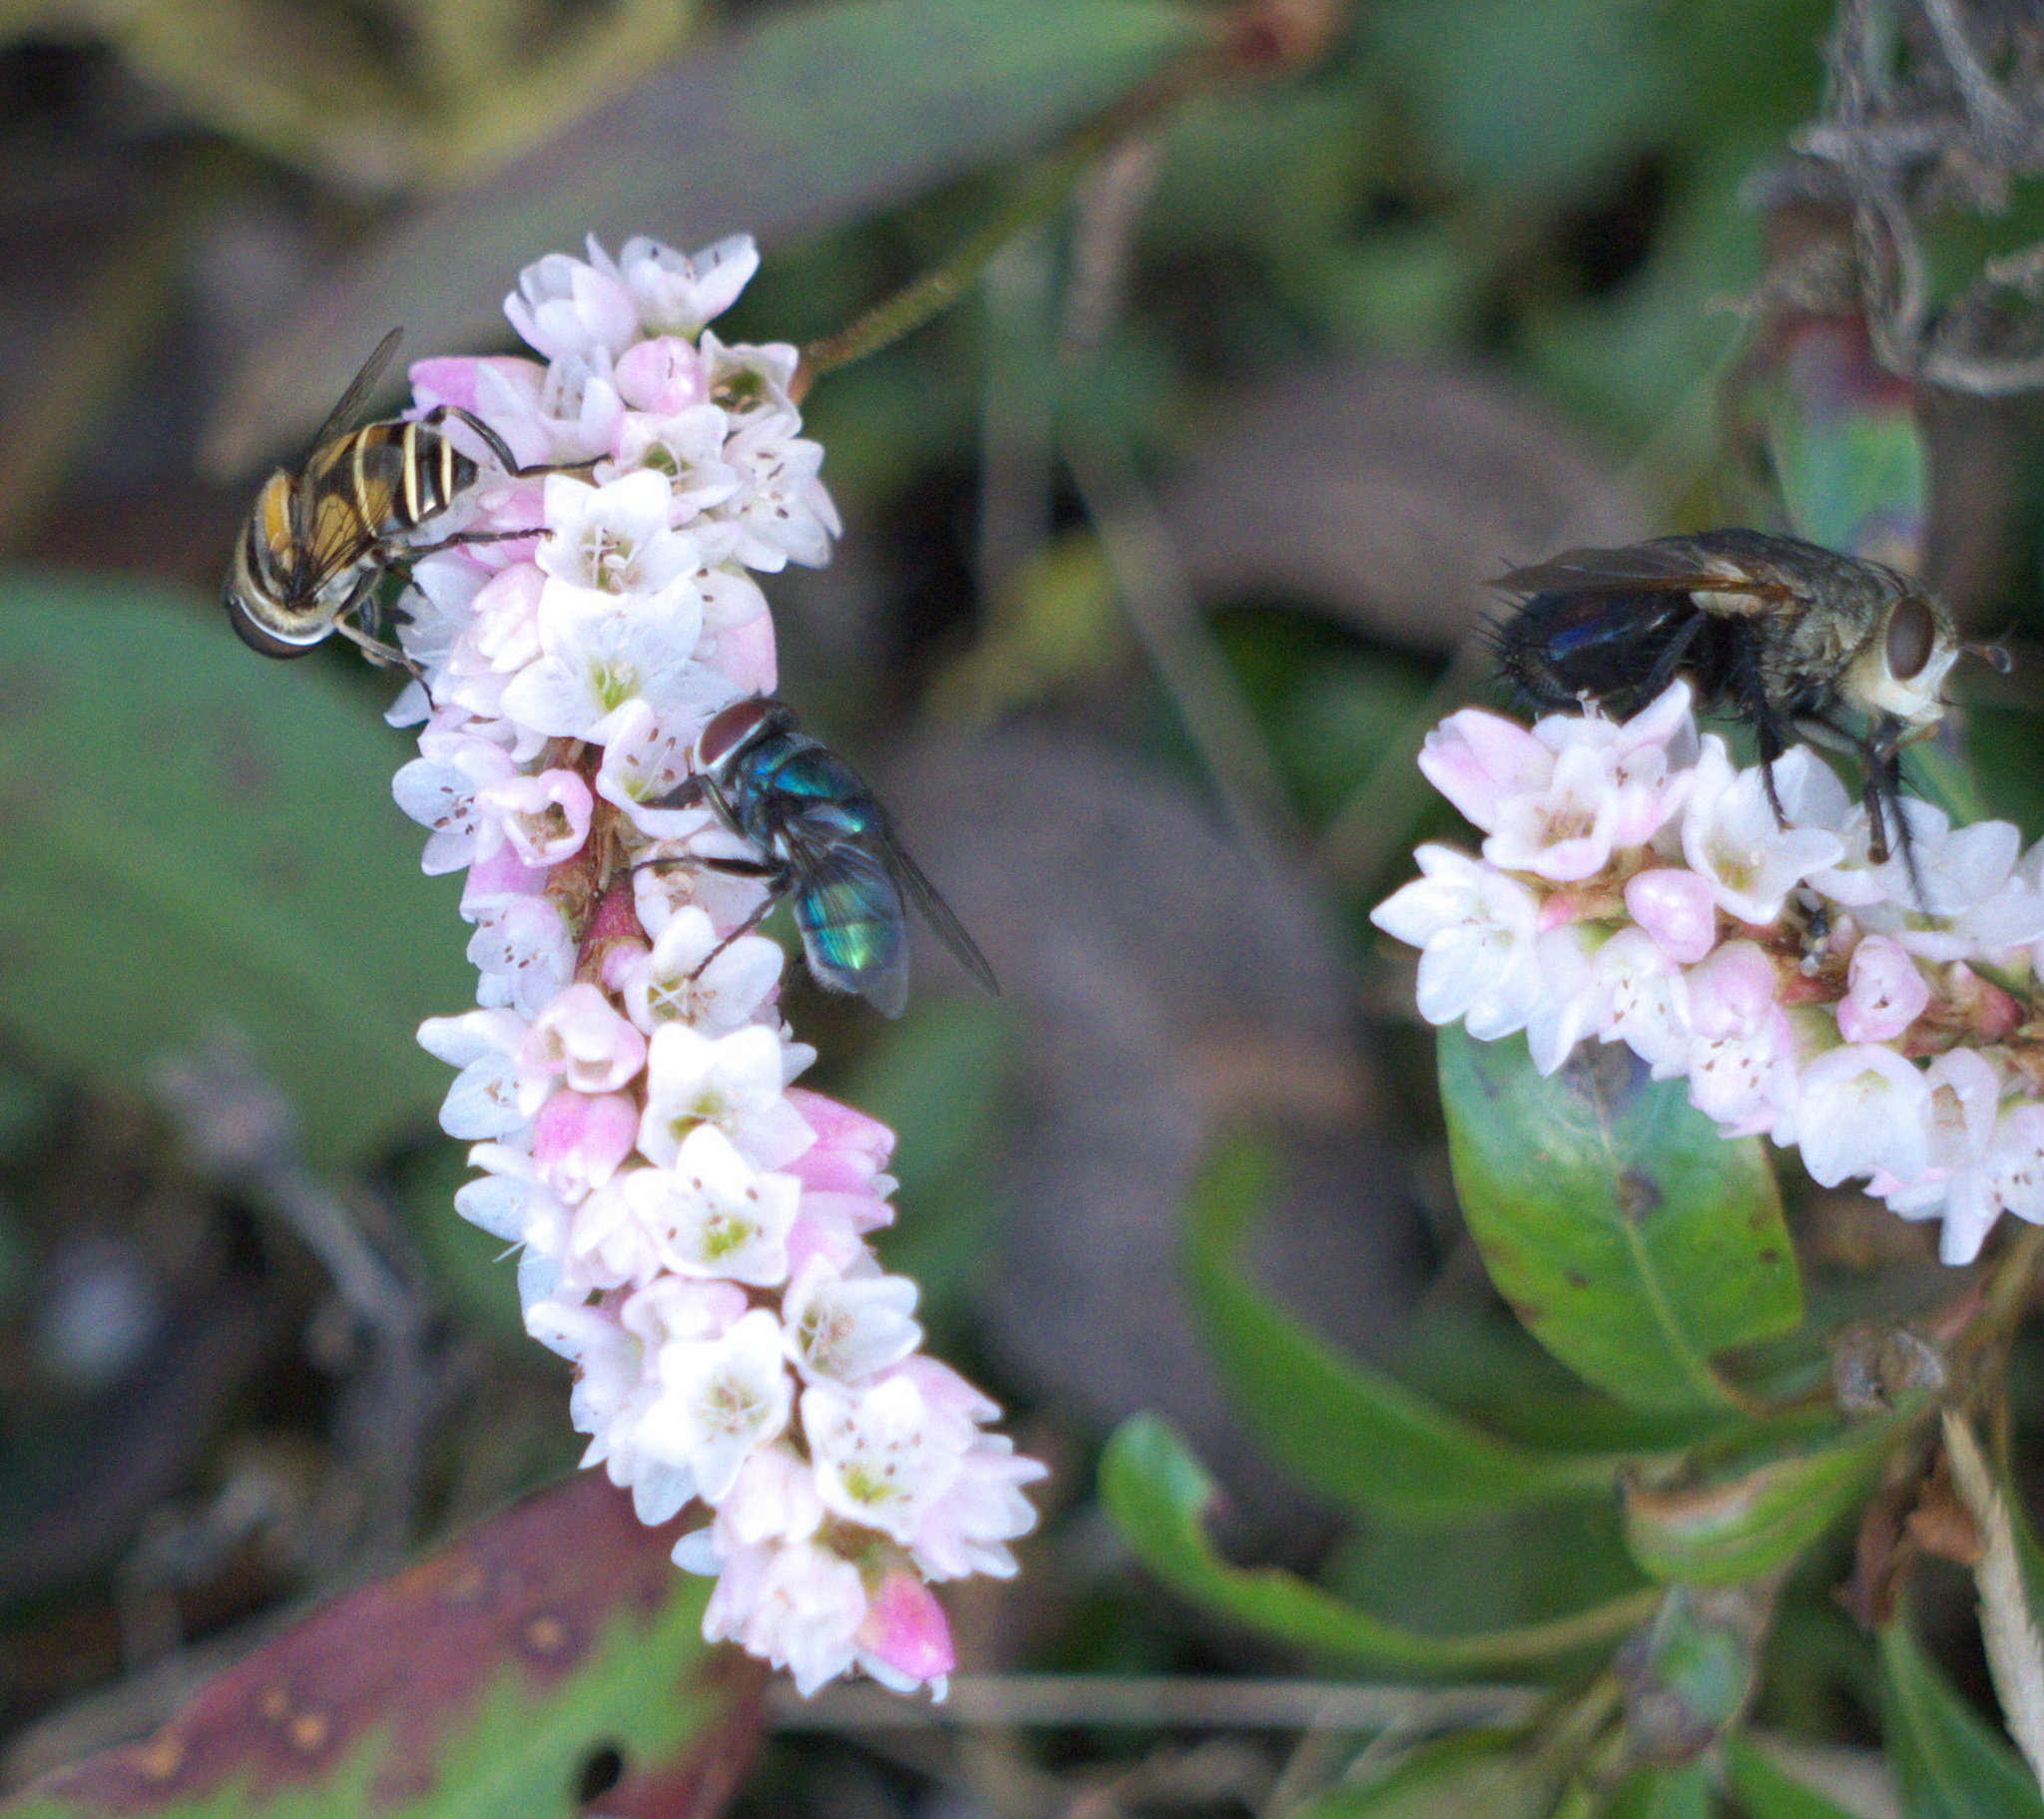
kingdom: Animalia
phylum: Arthropoda
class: Insecta
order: Diptera
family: Syrphidae
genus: Palpada
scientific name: Palpada agrorum
